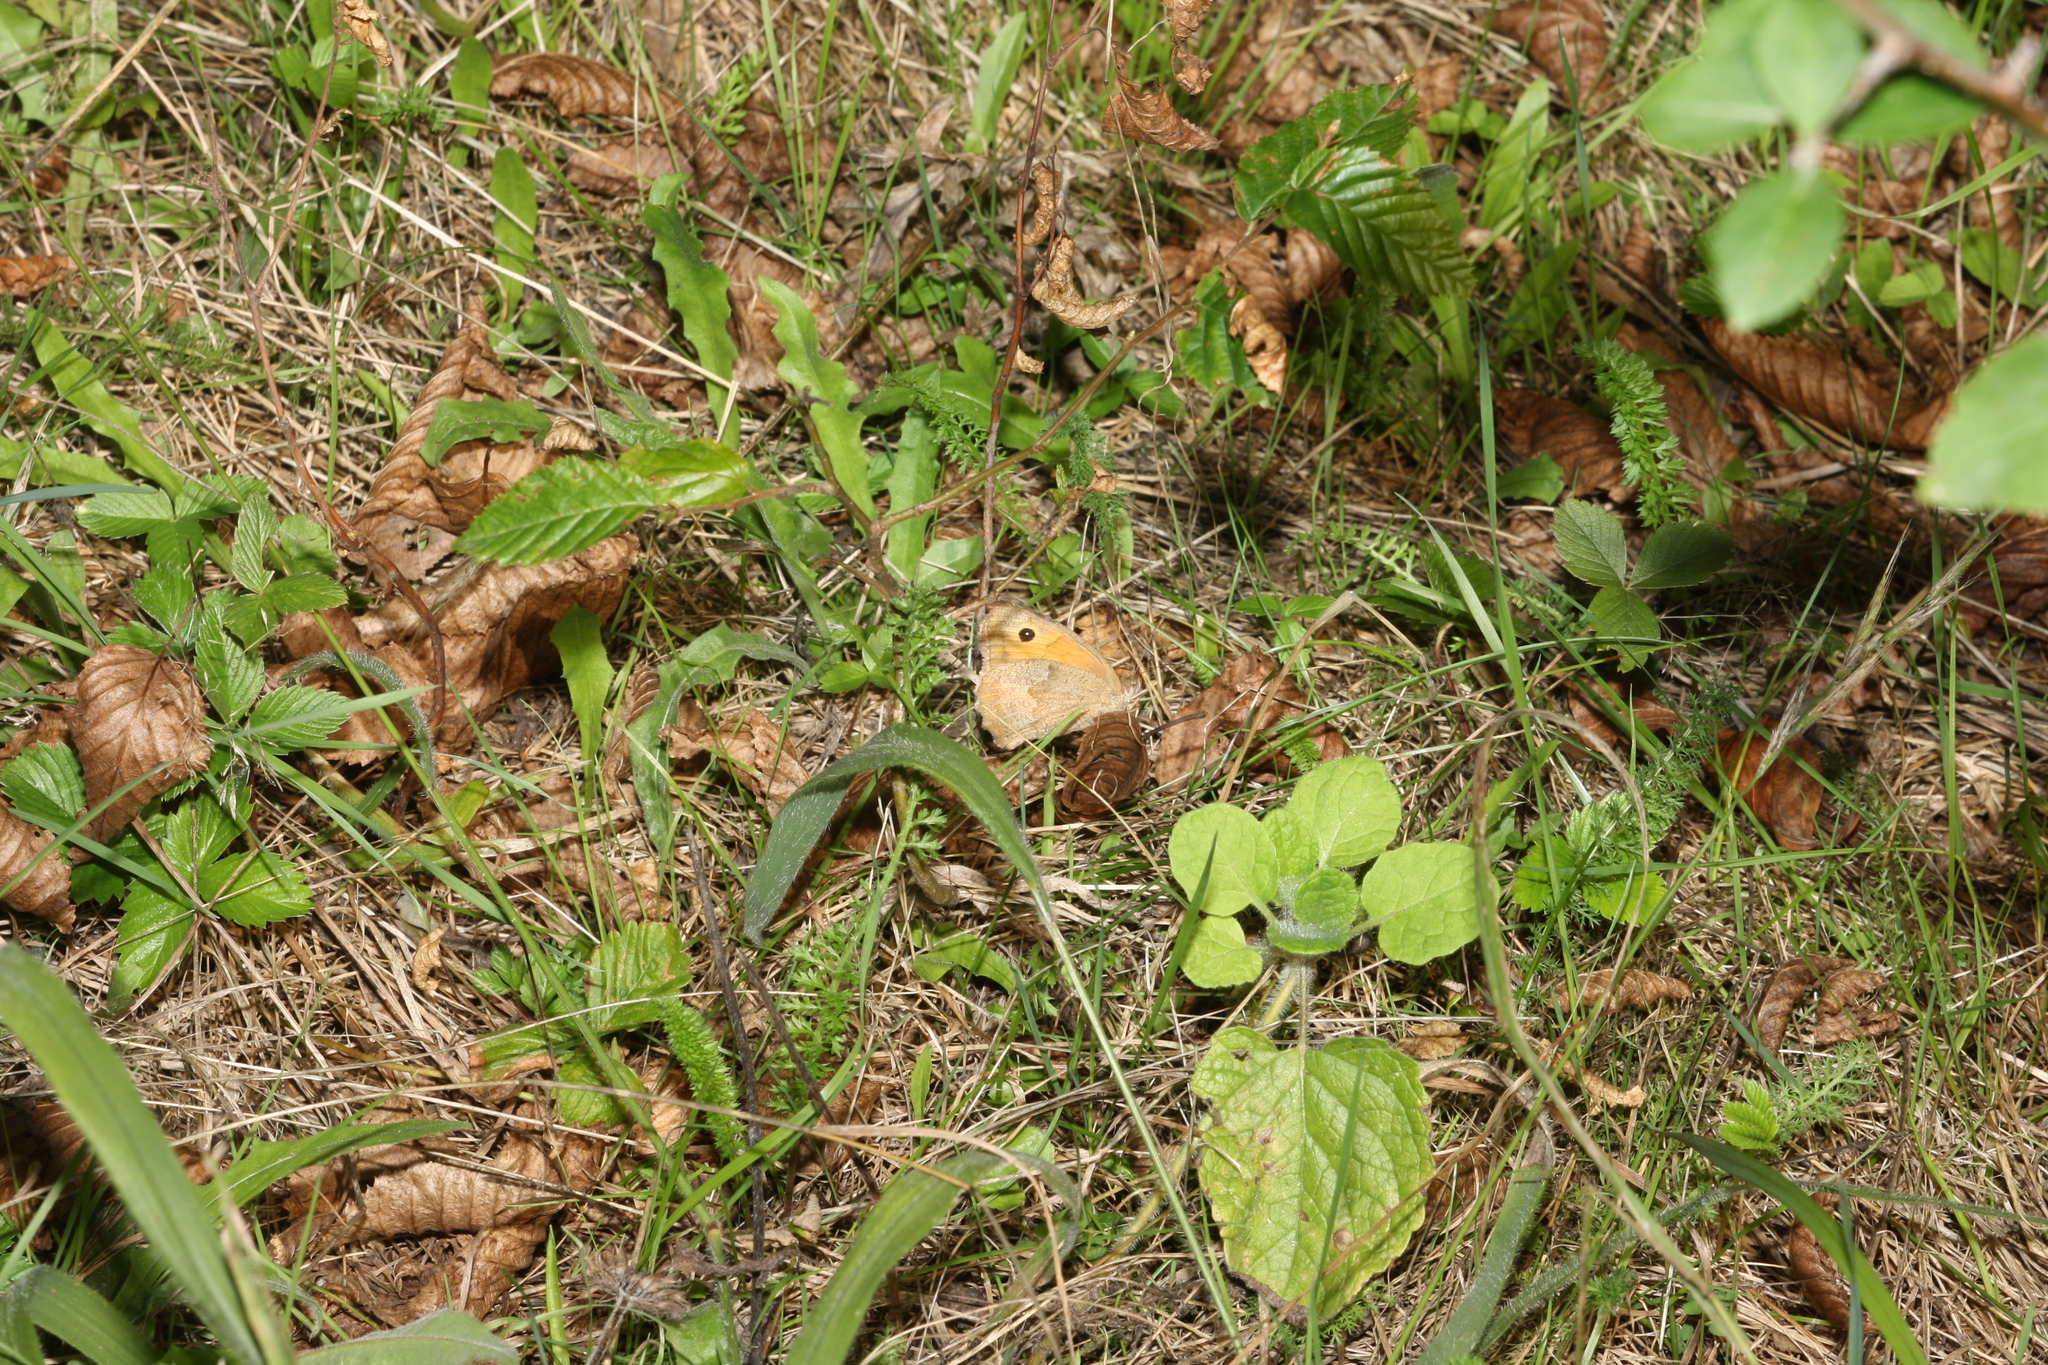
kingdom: Animalia
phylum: Arthropoda
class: Insecta
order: Lepidoptera
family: Nymphalidae
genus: Maniola
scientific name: Maniola jurtina
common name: Meadow brown
